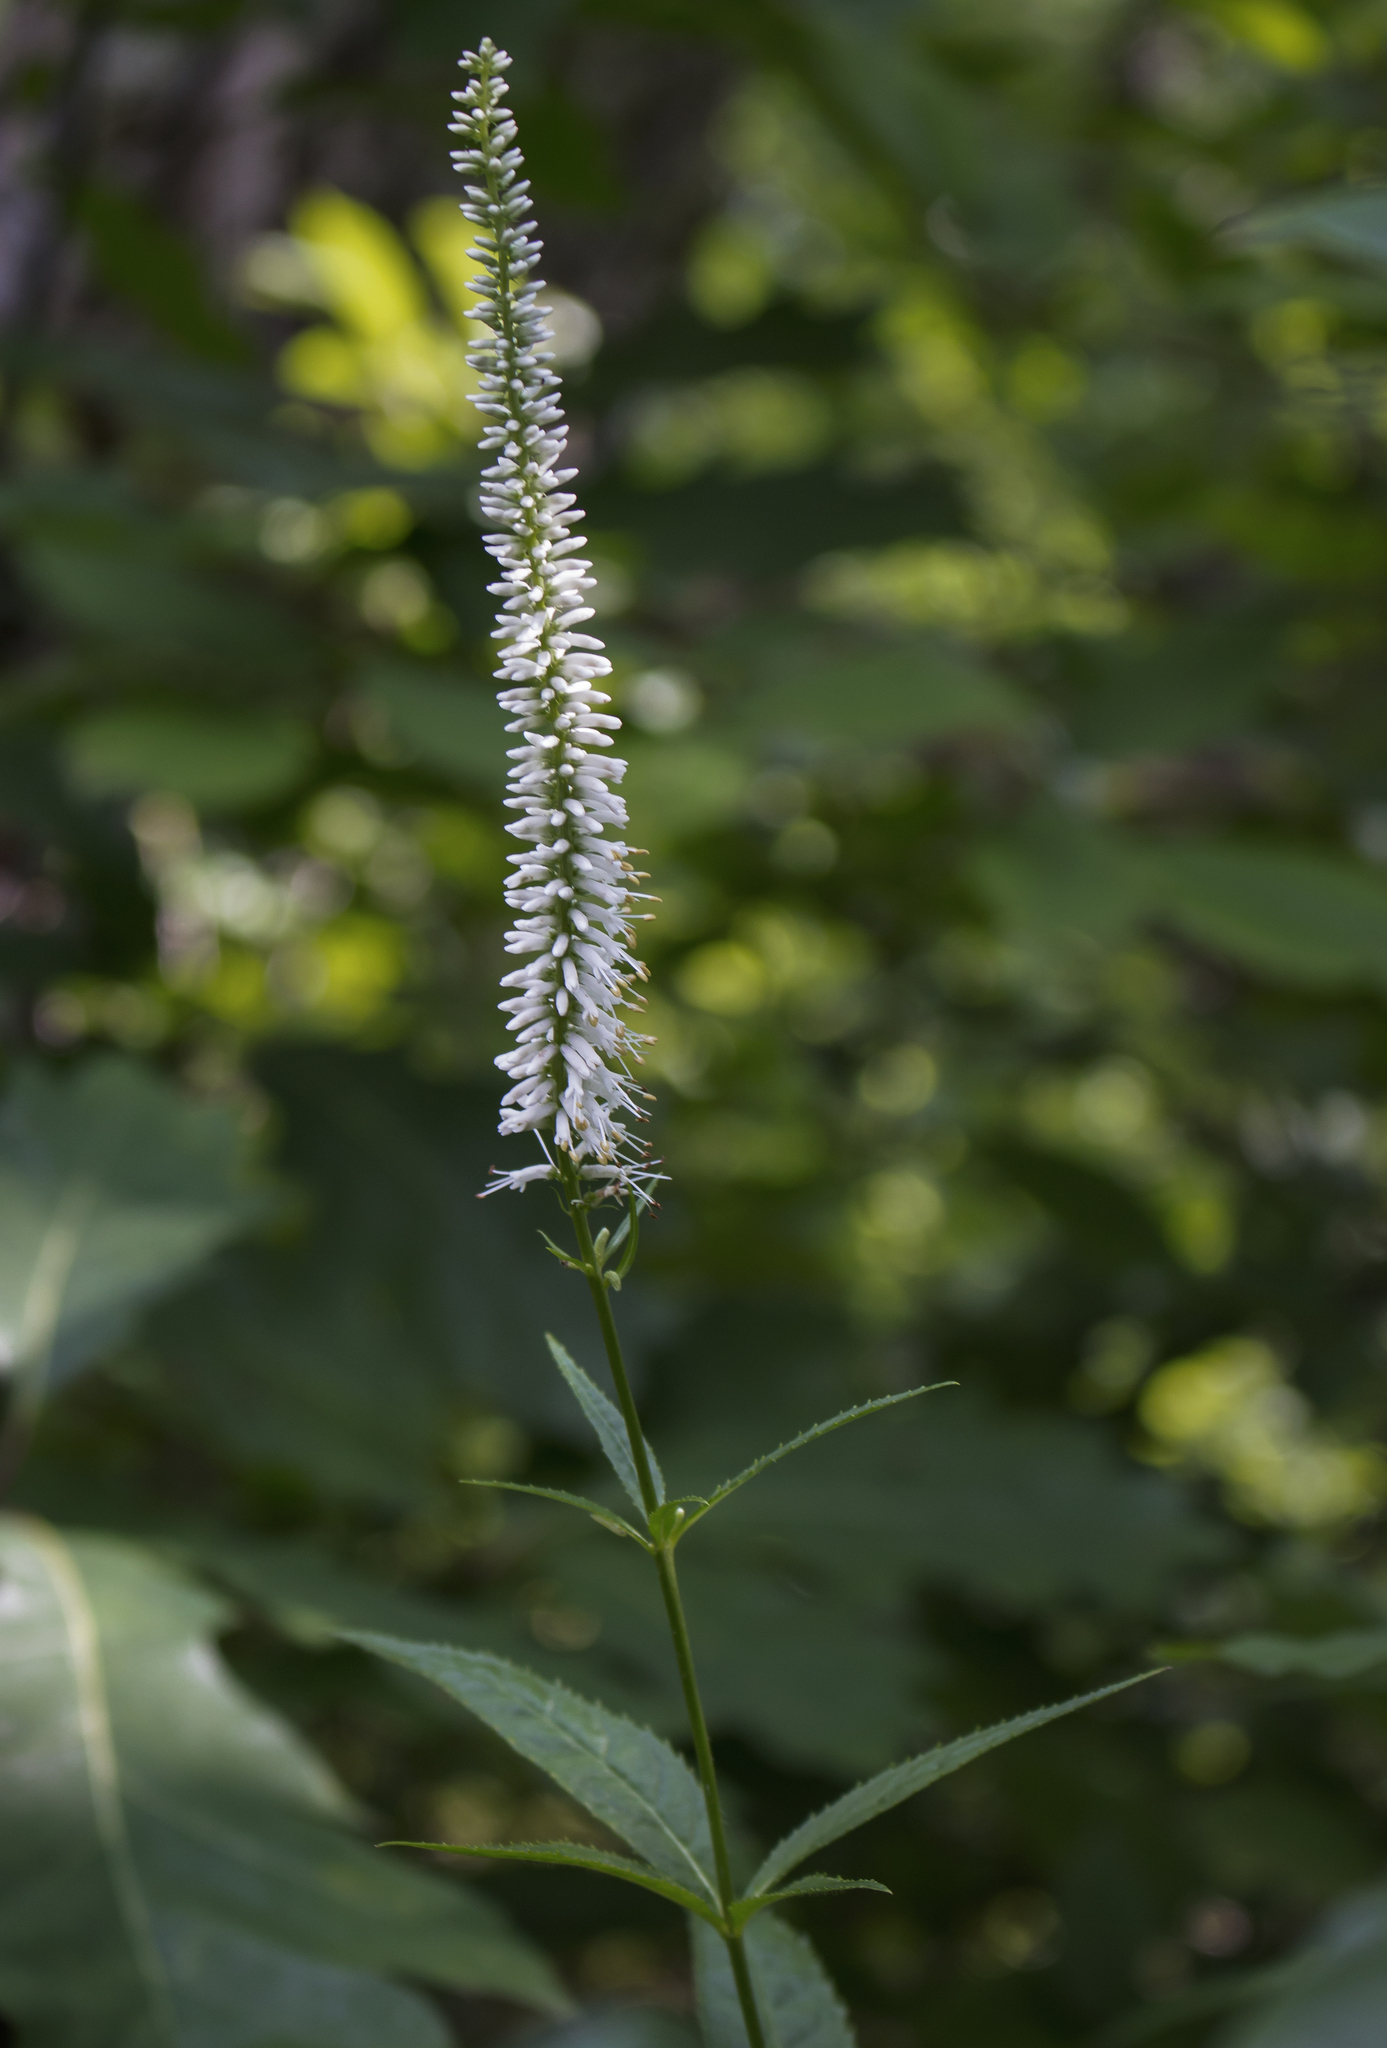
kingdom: Plantae
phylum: Tracheophyta
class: Magnoliopsida
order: Lamiales
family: Plantaginaceae
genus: Veronicastrum
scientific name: Veronicastrum virginicum
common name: Blackroot
